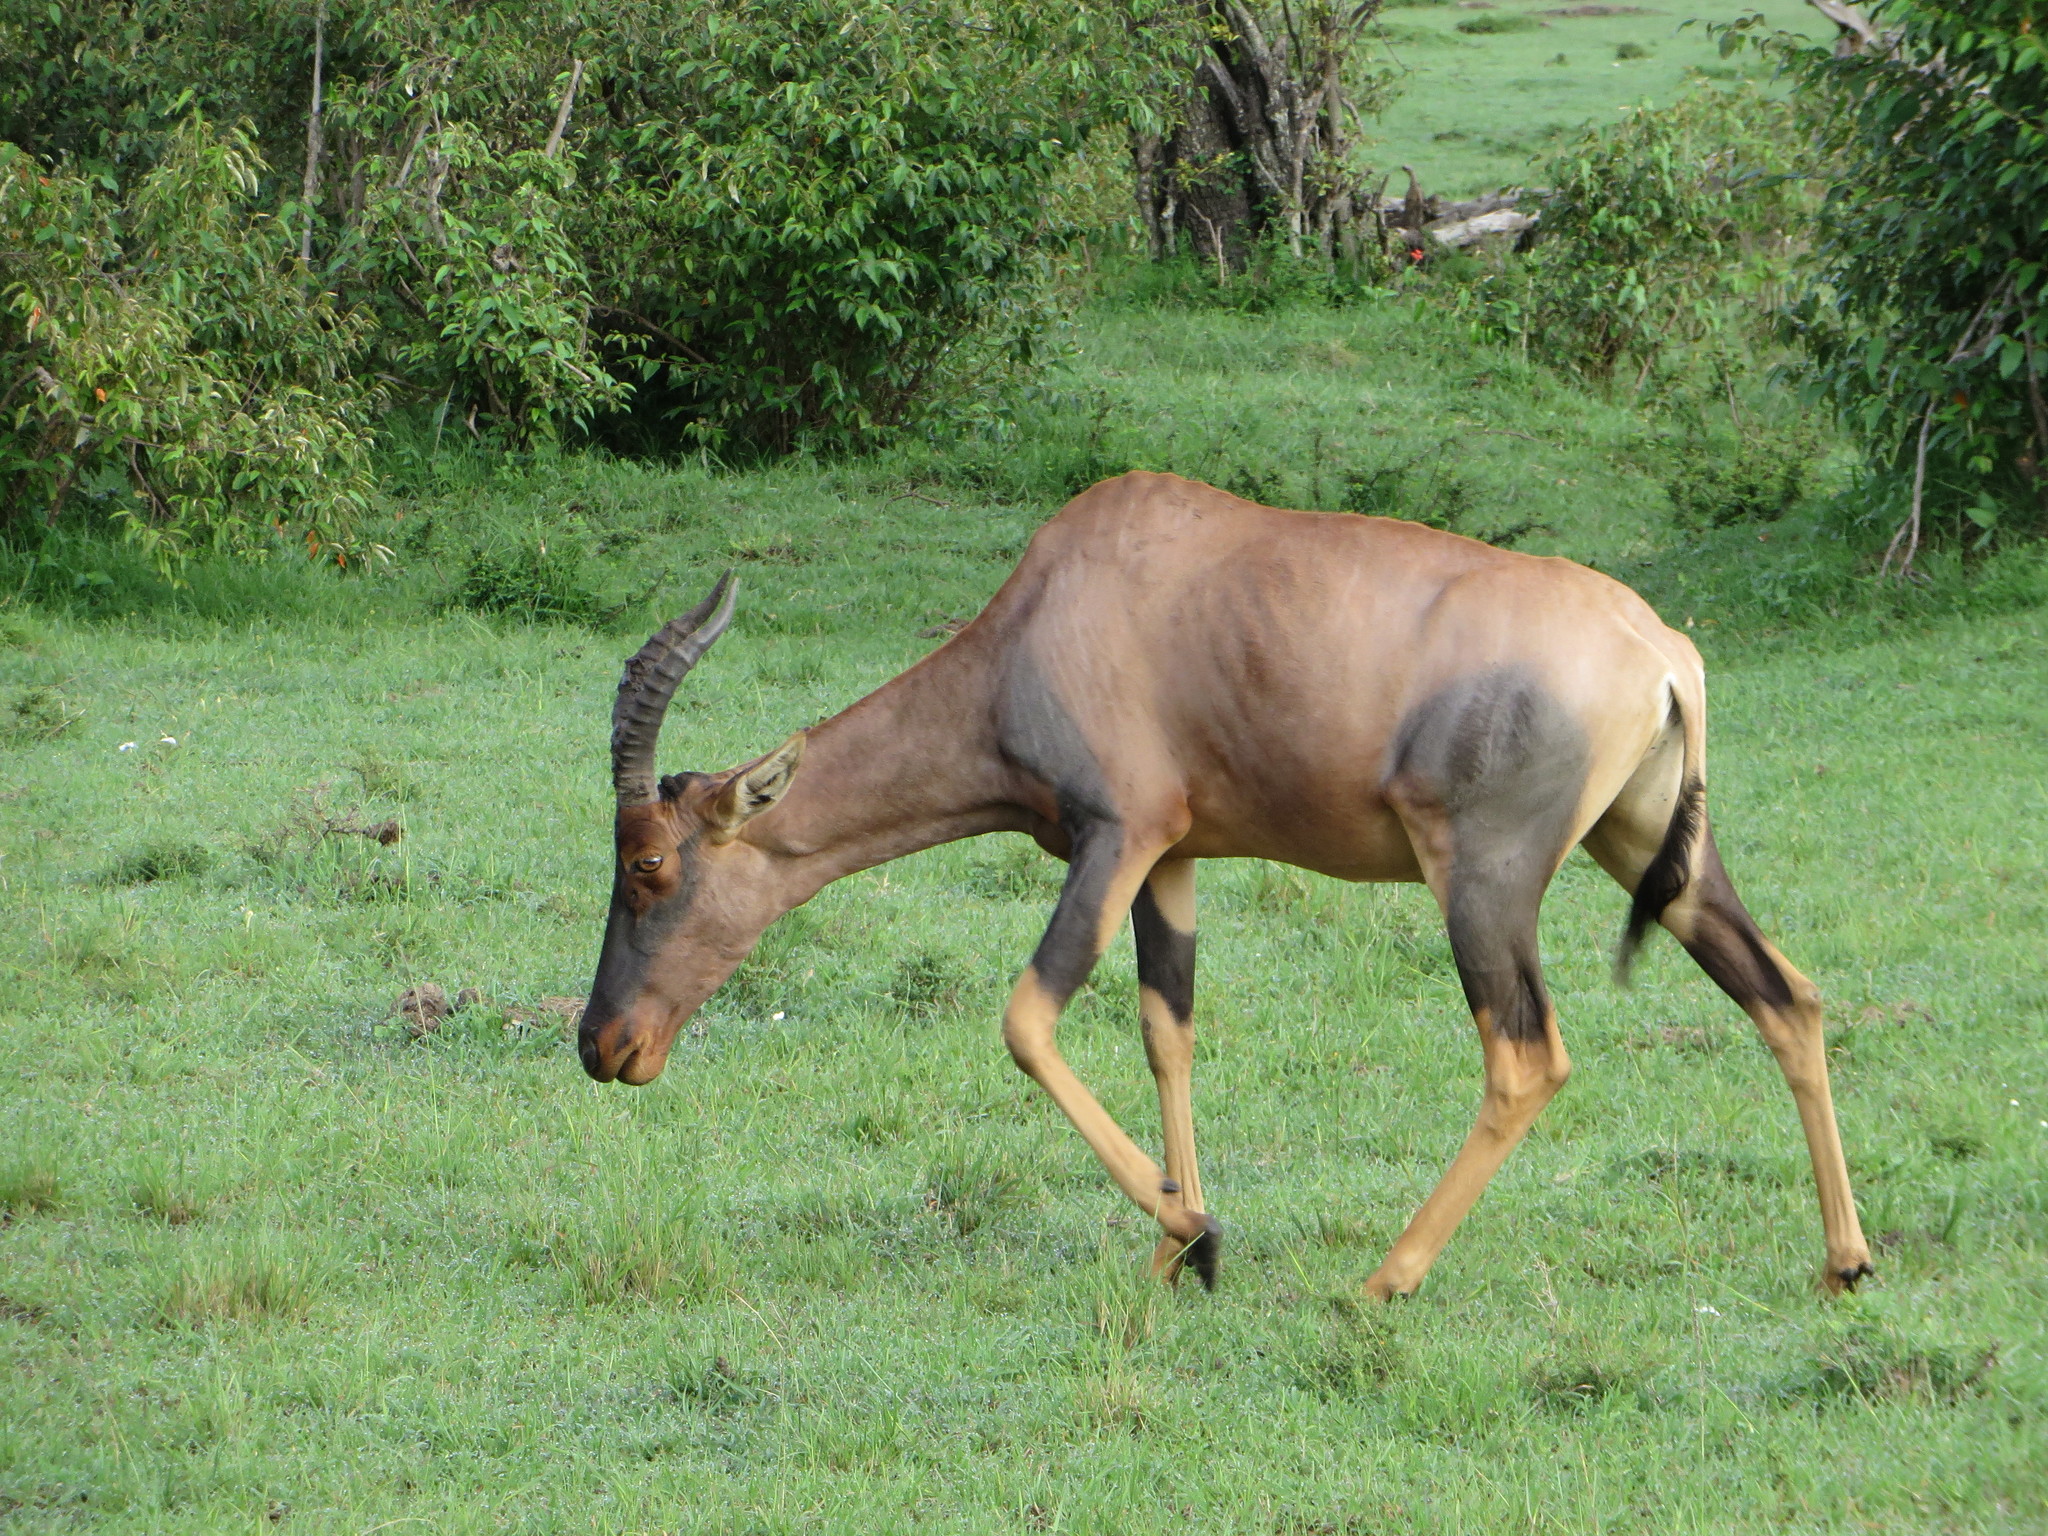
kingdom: Animalia
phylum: Chordata
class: Mammalia
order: Artiodactyla
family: Bovidae
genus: Damaliscus
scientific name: Damaliscus korrigum
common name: Topi
